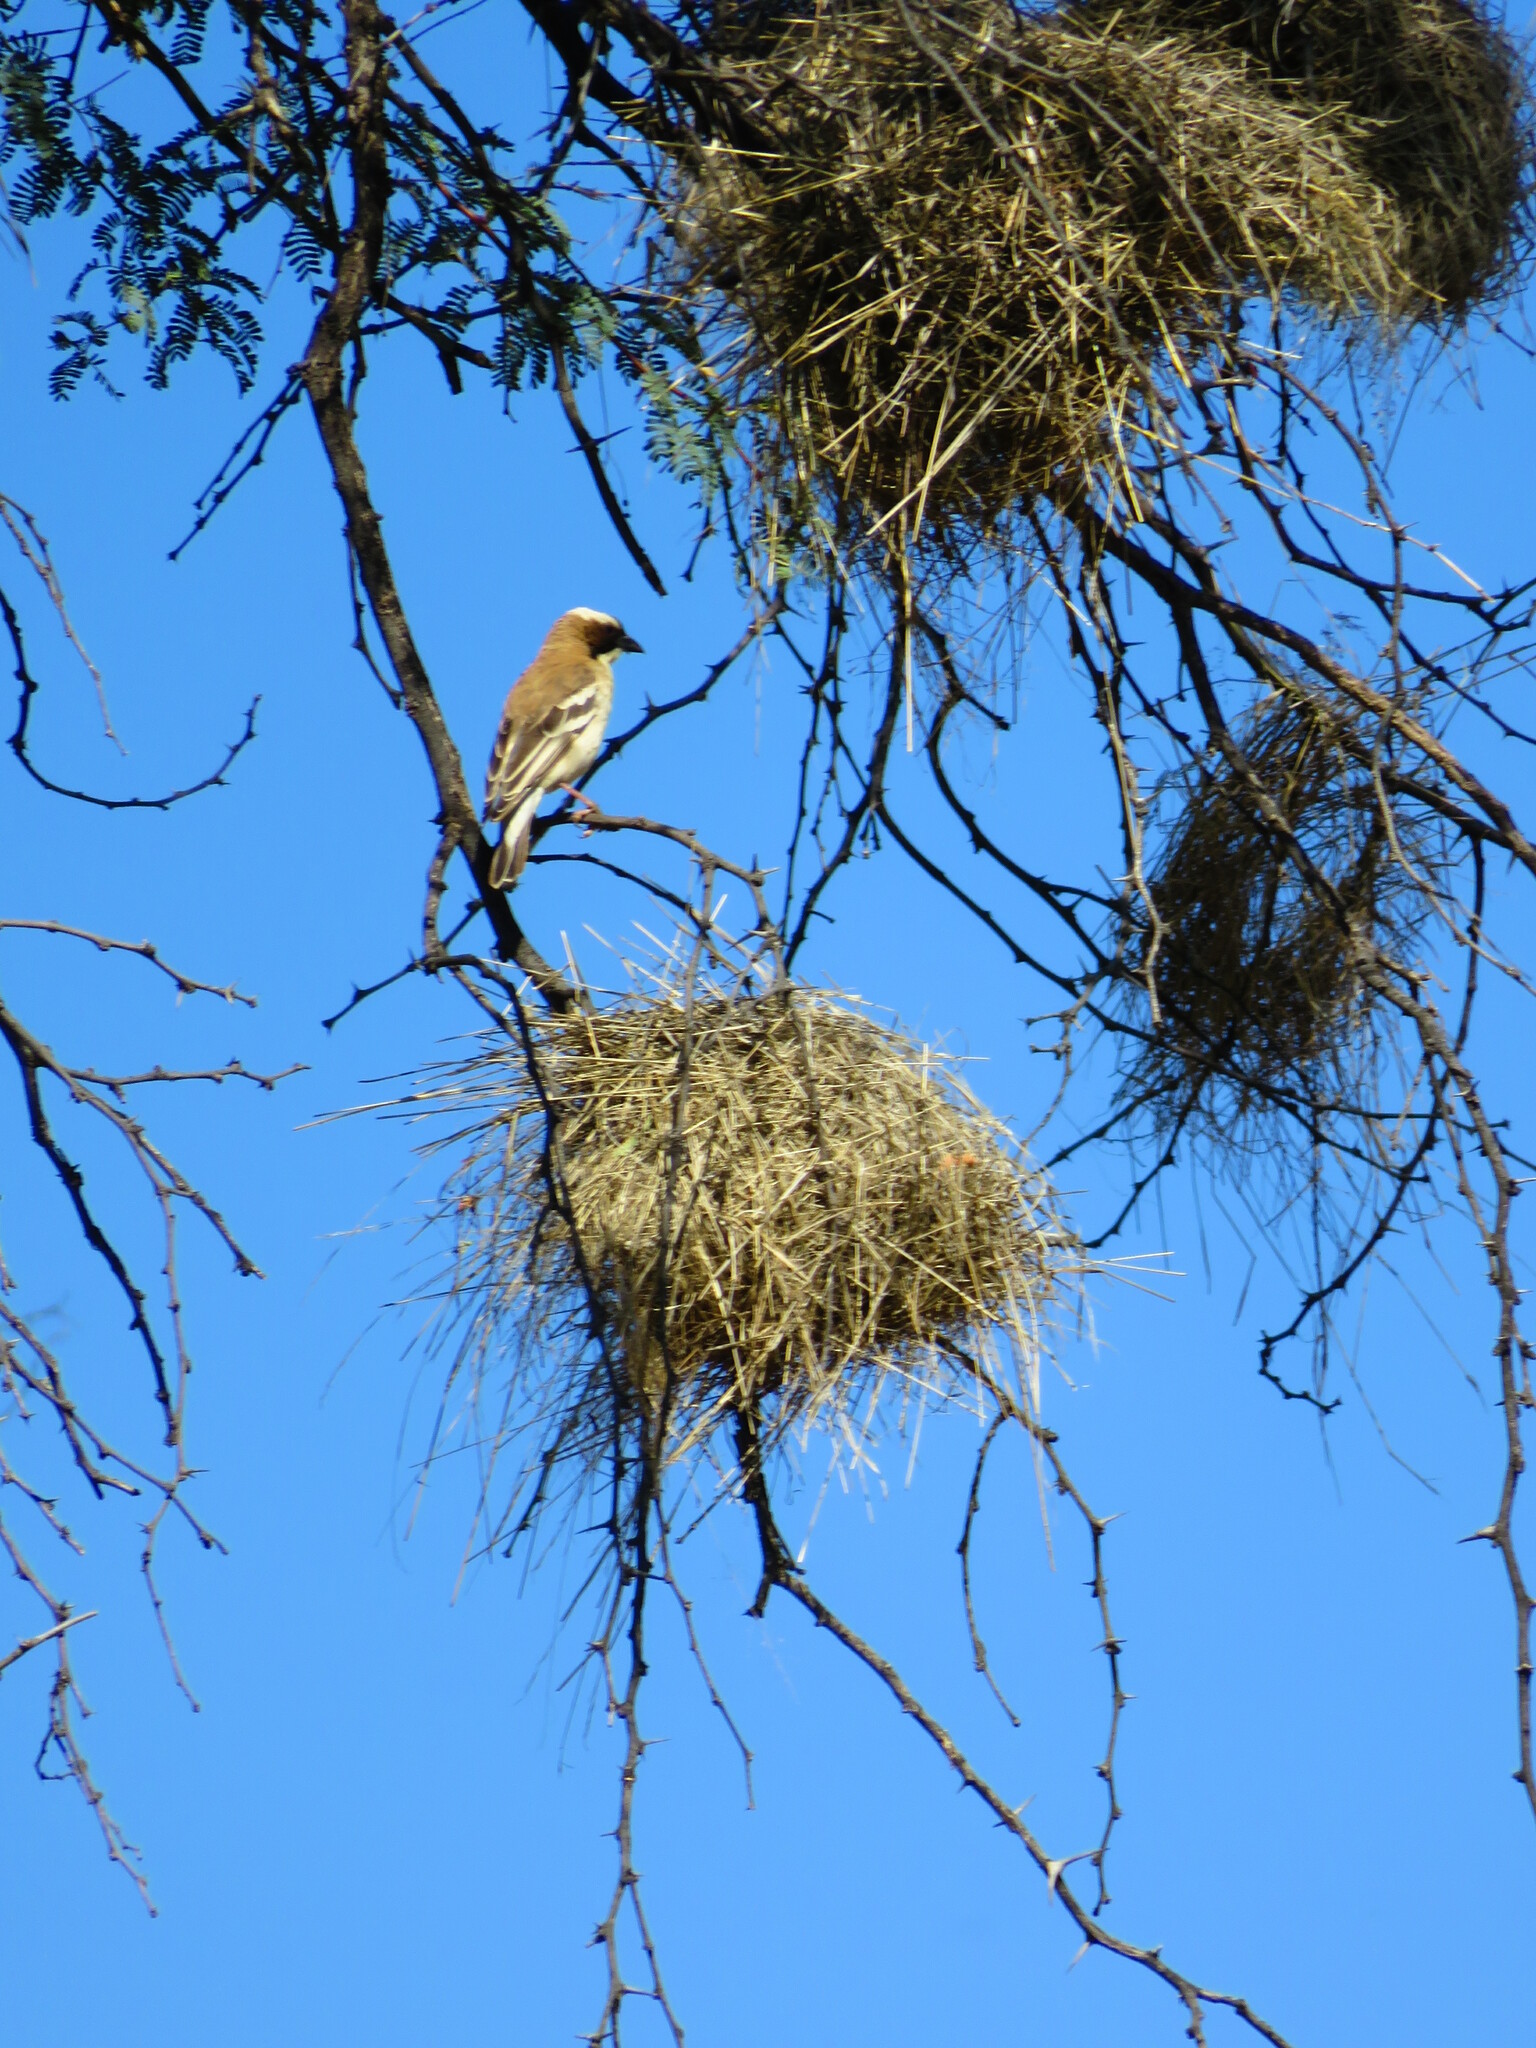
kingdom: Animalia
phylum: Chordata
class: Aves
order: Passeriformes
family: Passeridae
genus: Plocepasser
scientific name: Plocepasser mahali
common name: White-browed sparrow-weaver
